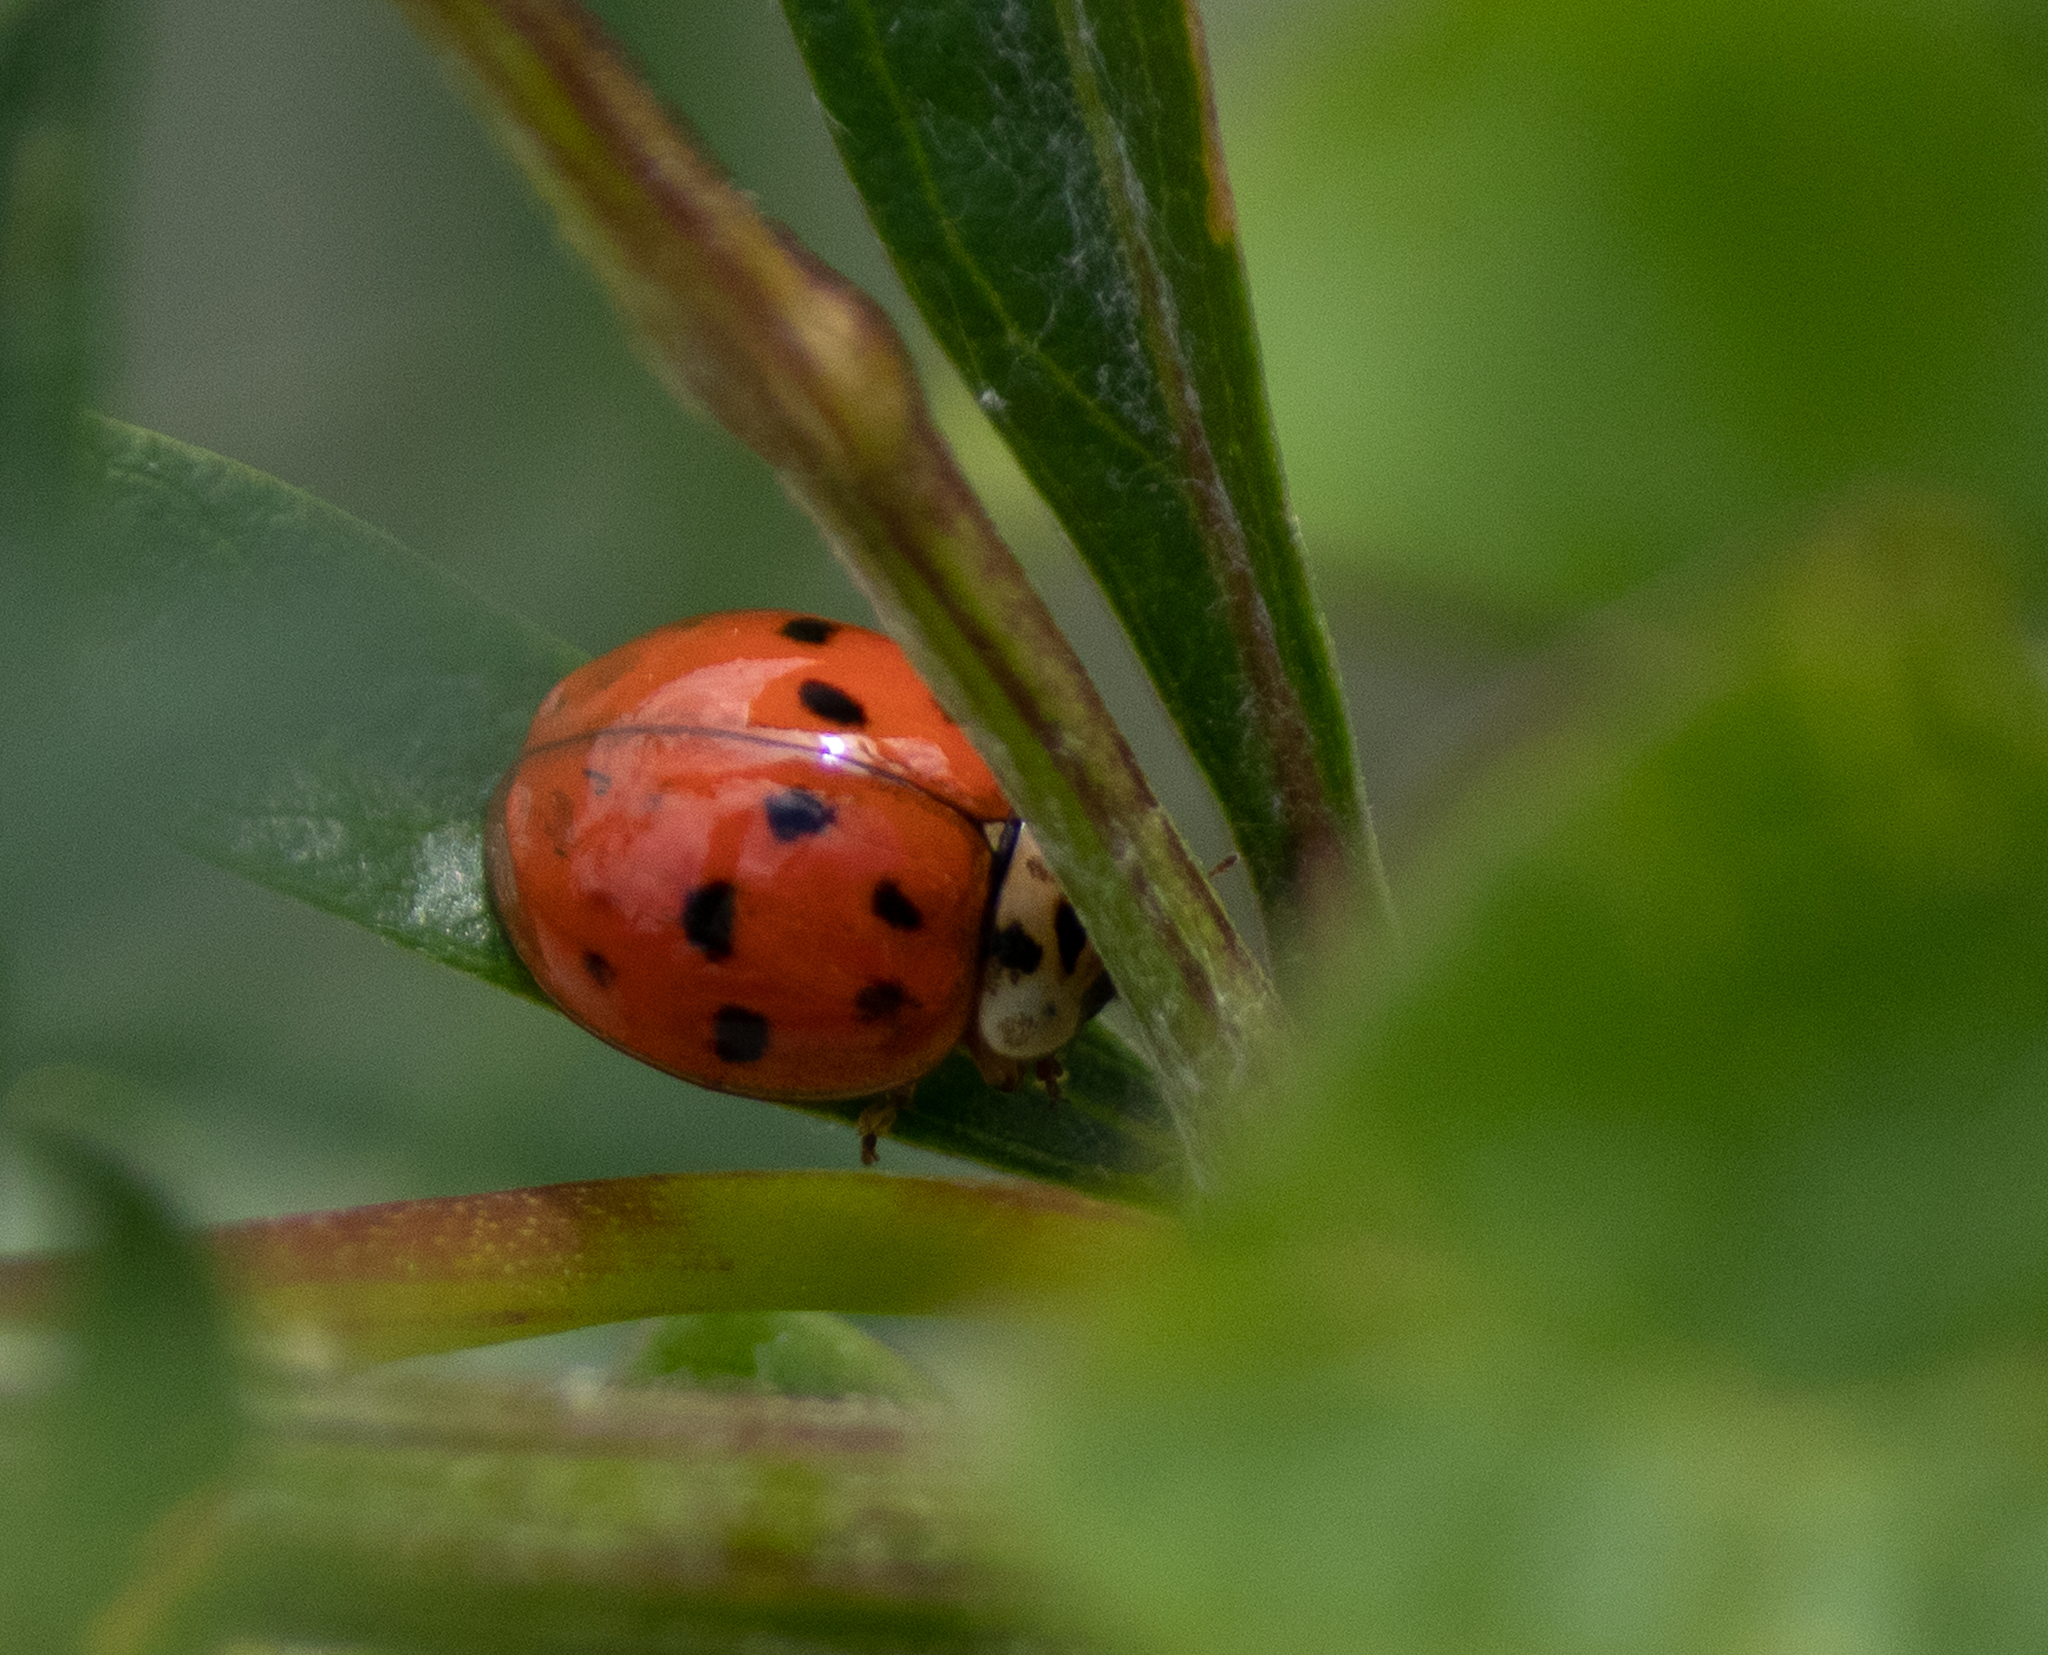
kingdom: Animalia
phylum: Arthropoda
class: Insecta
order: Coleoptera
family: Coccinellidae
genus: Harmonia
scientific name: Harmonia axyridis
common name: Harlequin ladybird
